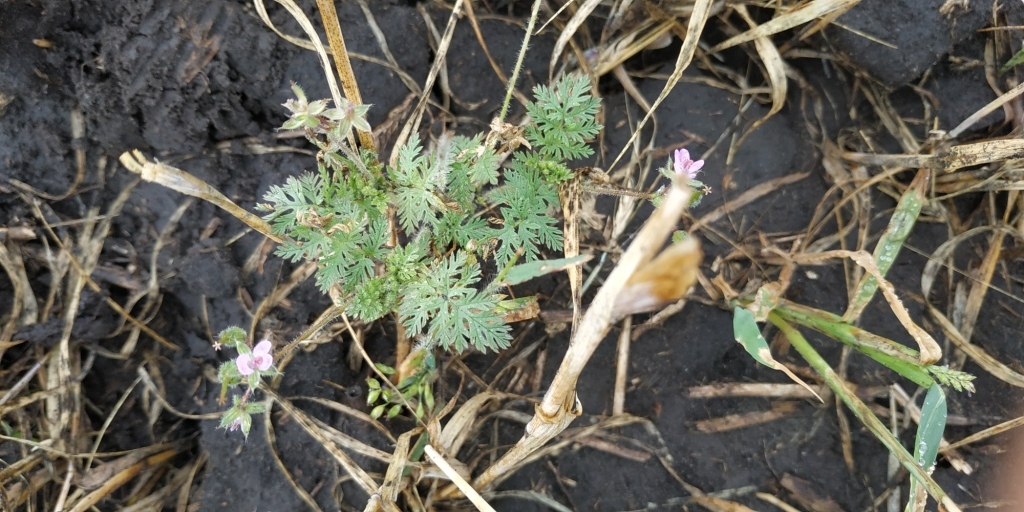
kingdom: Plantae
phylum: Tracheophyta
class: Magnoliopsida
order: Geraniales
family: Geraniaceae
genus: Erodium
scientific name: Erodium cicutarium
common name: Common stork's-bill
